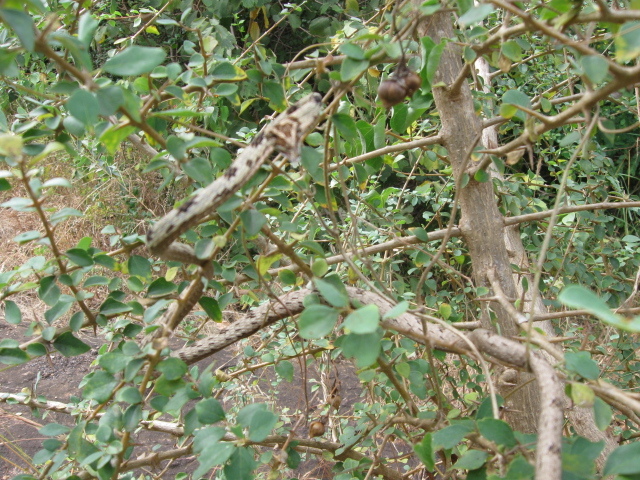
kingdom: Animalia
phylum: Chordata
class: Squamata
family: Colubridae
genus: Ahaetulla
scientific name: Ahaetulla sahyadrensis
